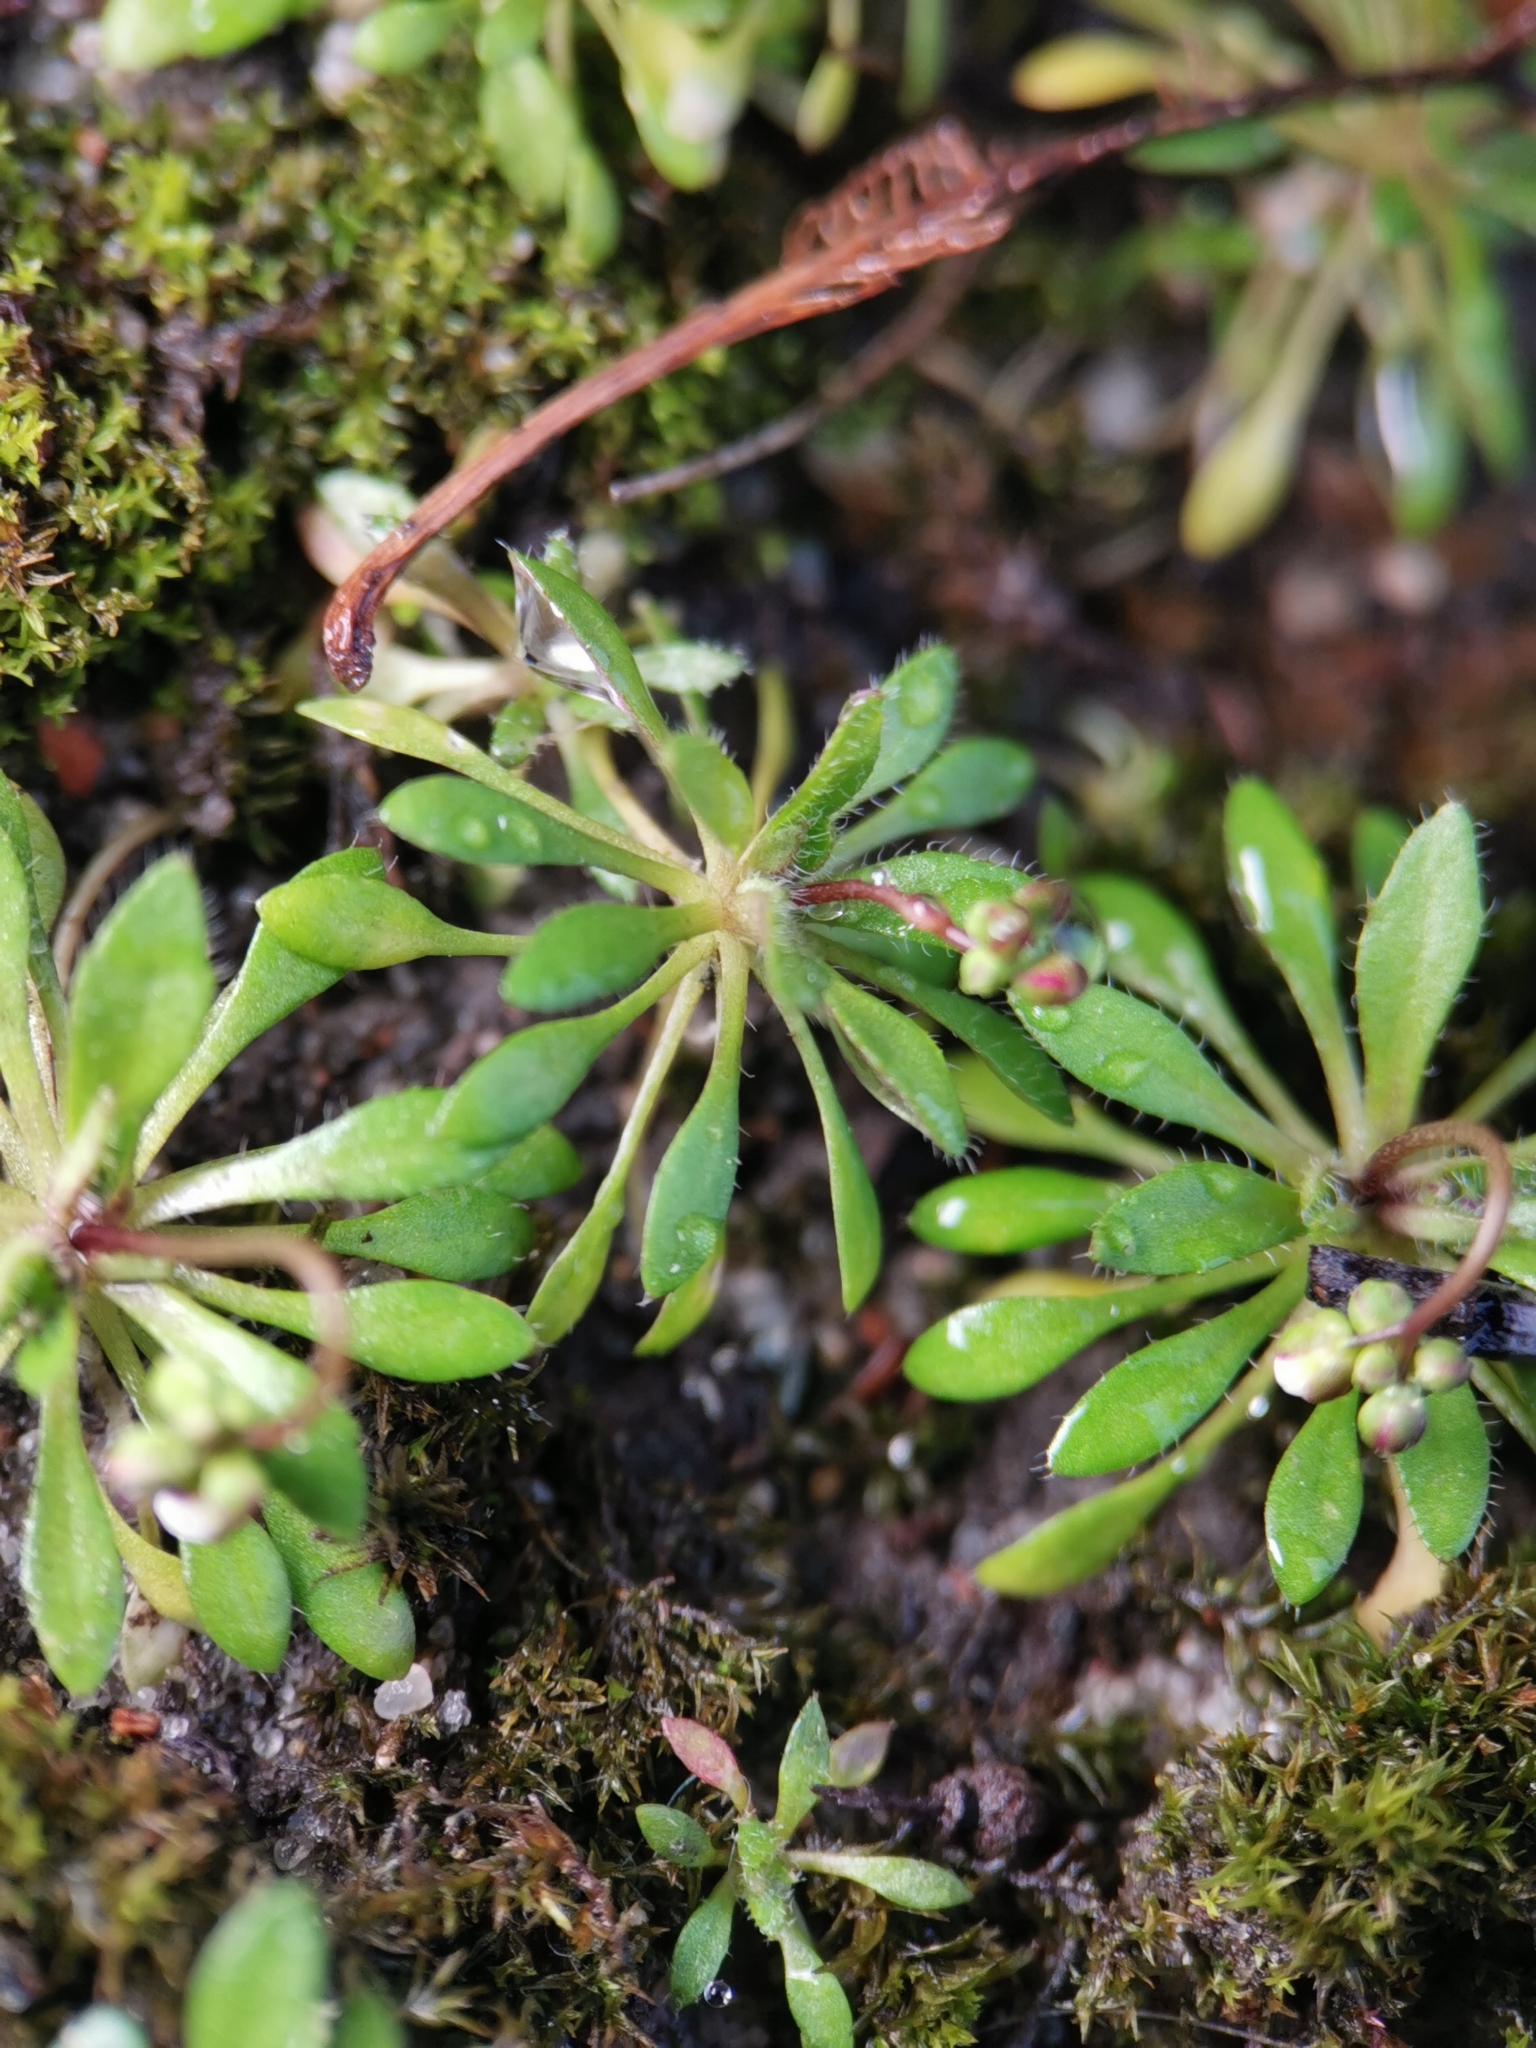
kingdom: Plantae
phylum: Tracheophyta
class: Magnoliopsida
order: Brassicales
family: Brassicaceae
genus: Draba
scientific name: Draba verna
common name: Spring draba
